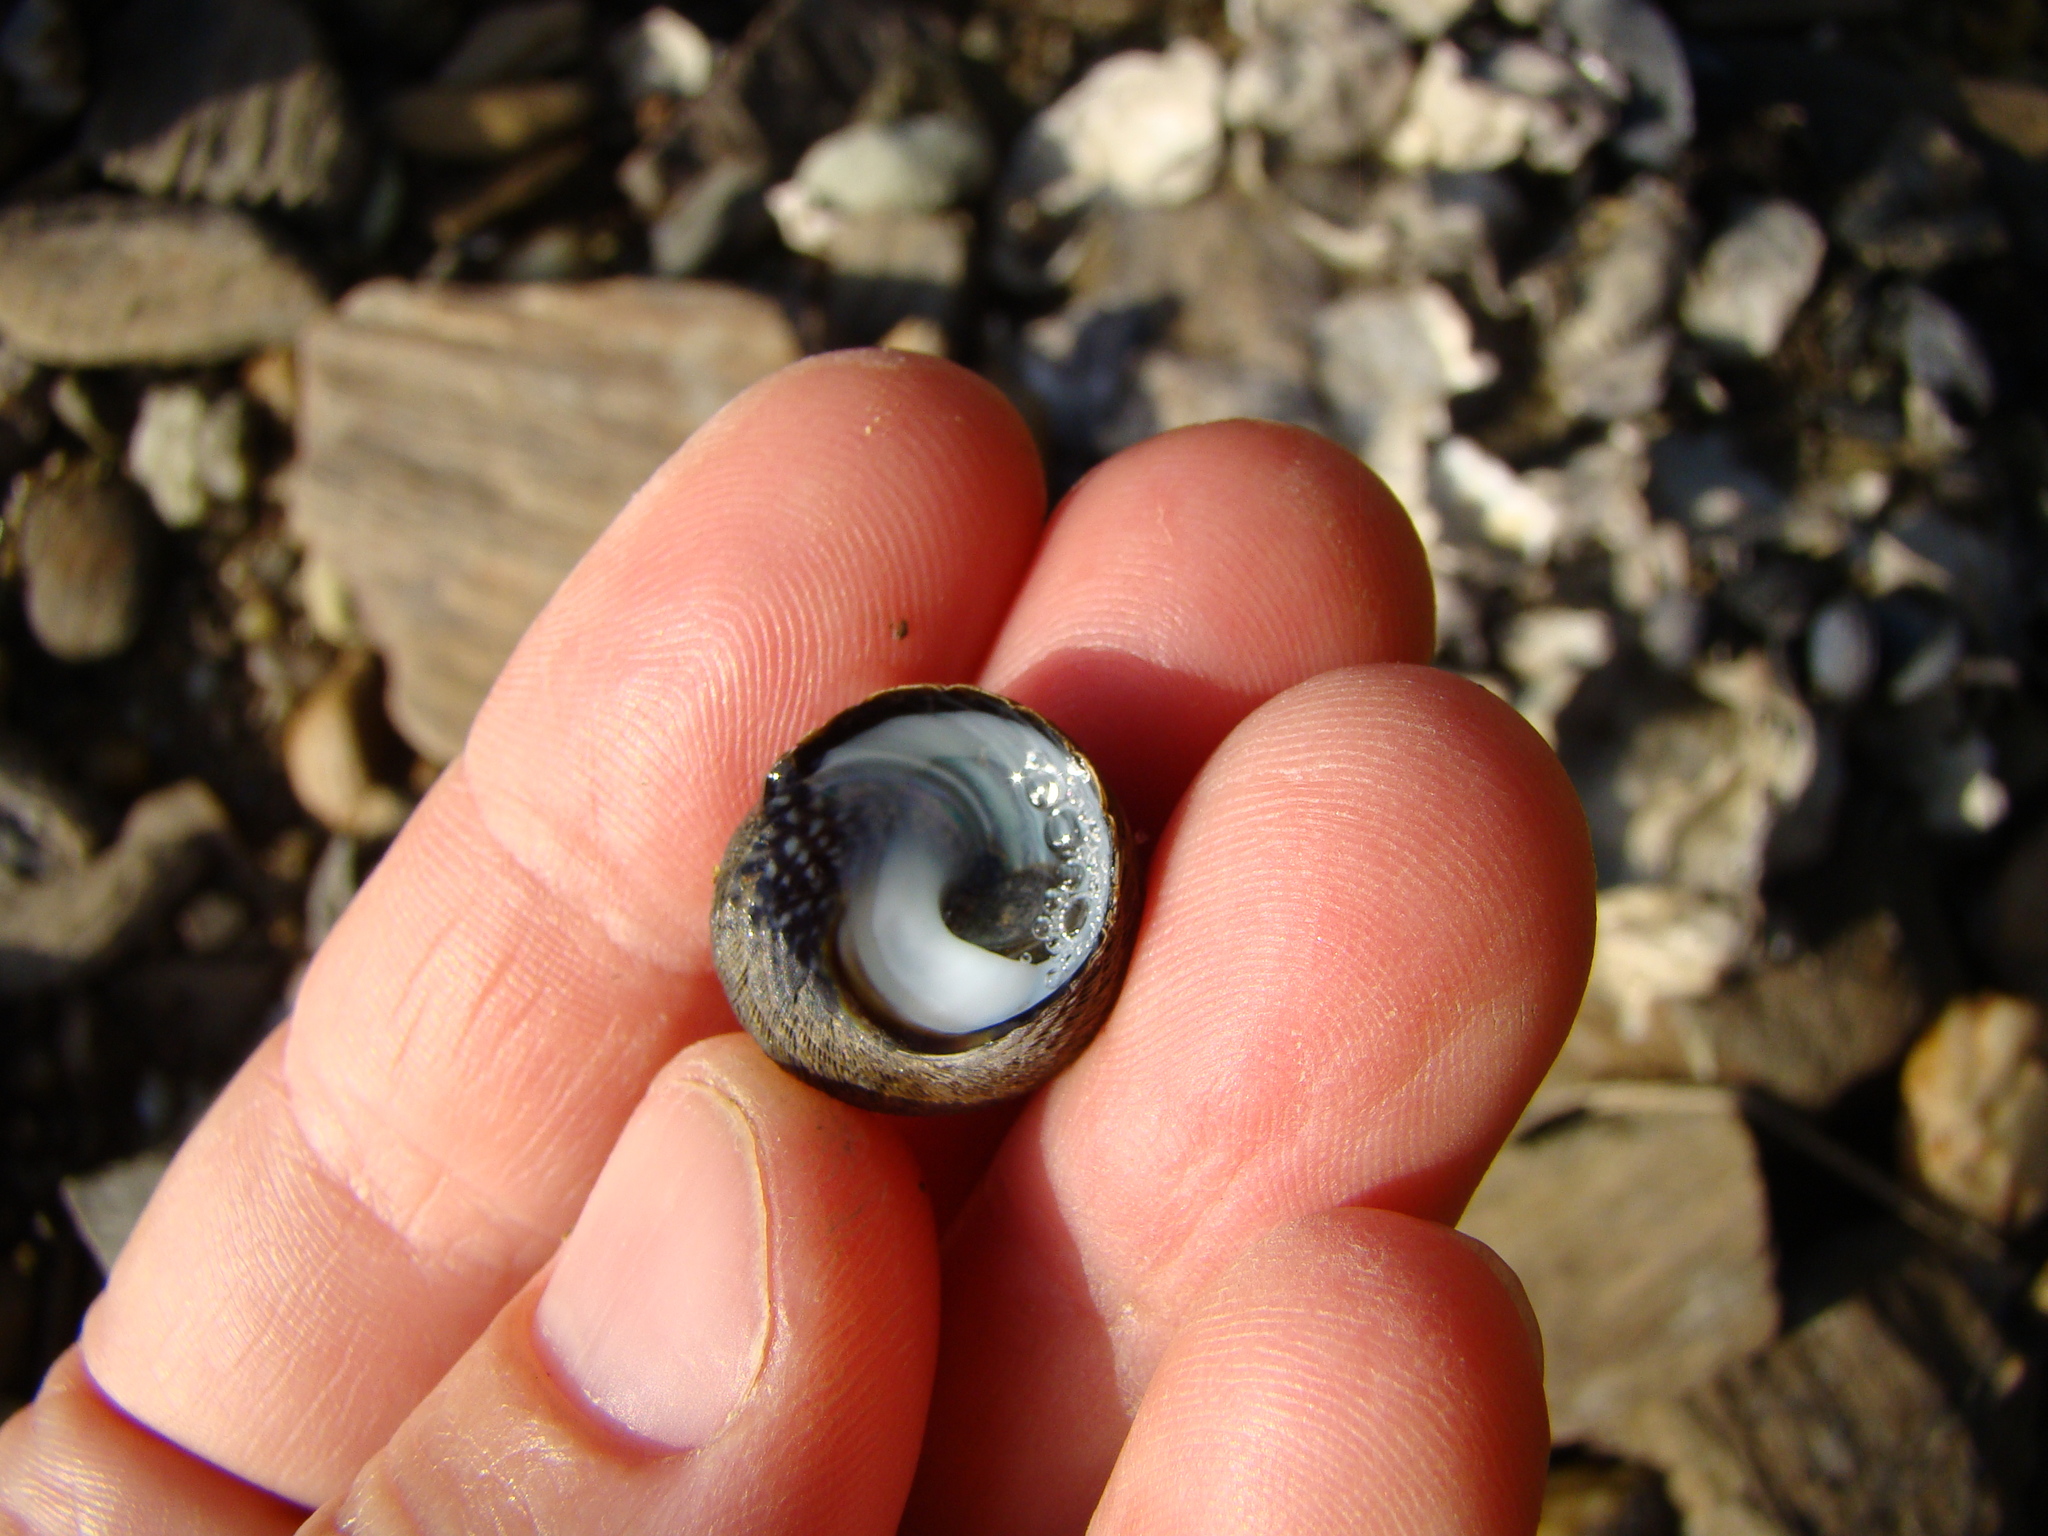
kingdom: Animalia
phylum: Mollusca
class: Gastropoda
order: Trochida
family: Trochidae
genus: Diloma
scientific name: Diloma aethiops
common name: Scorched monodont
